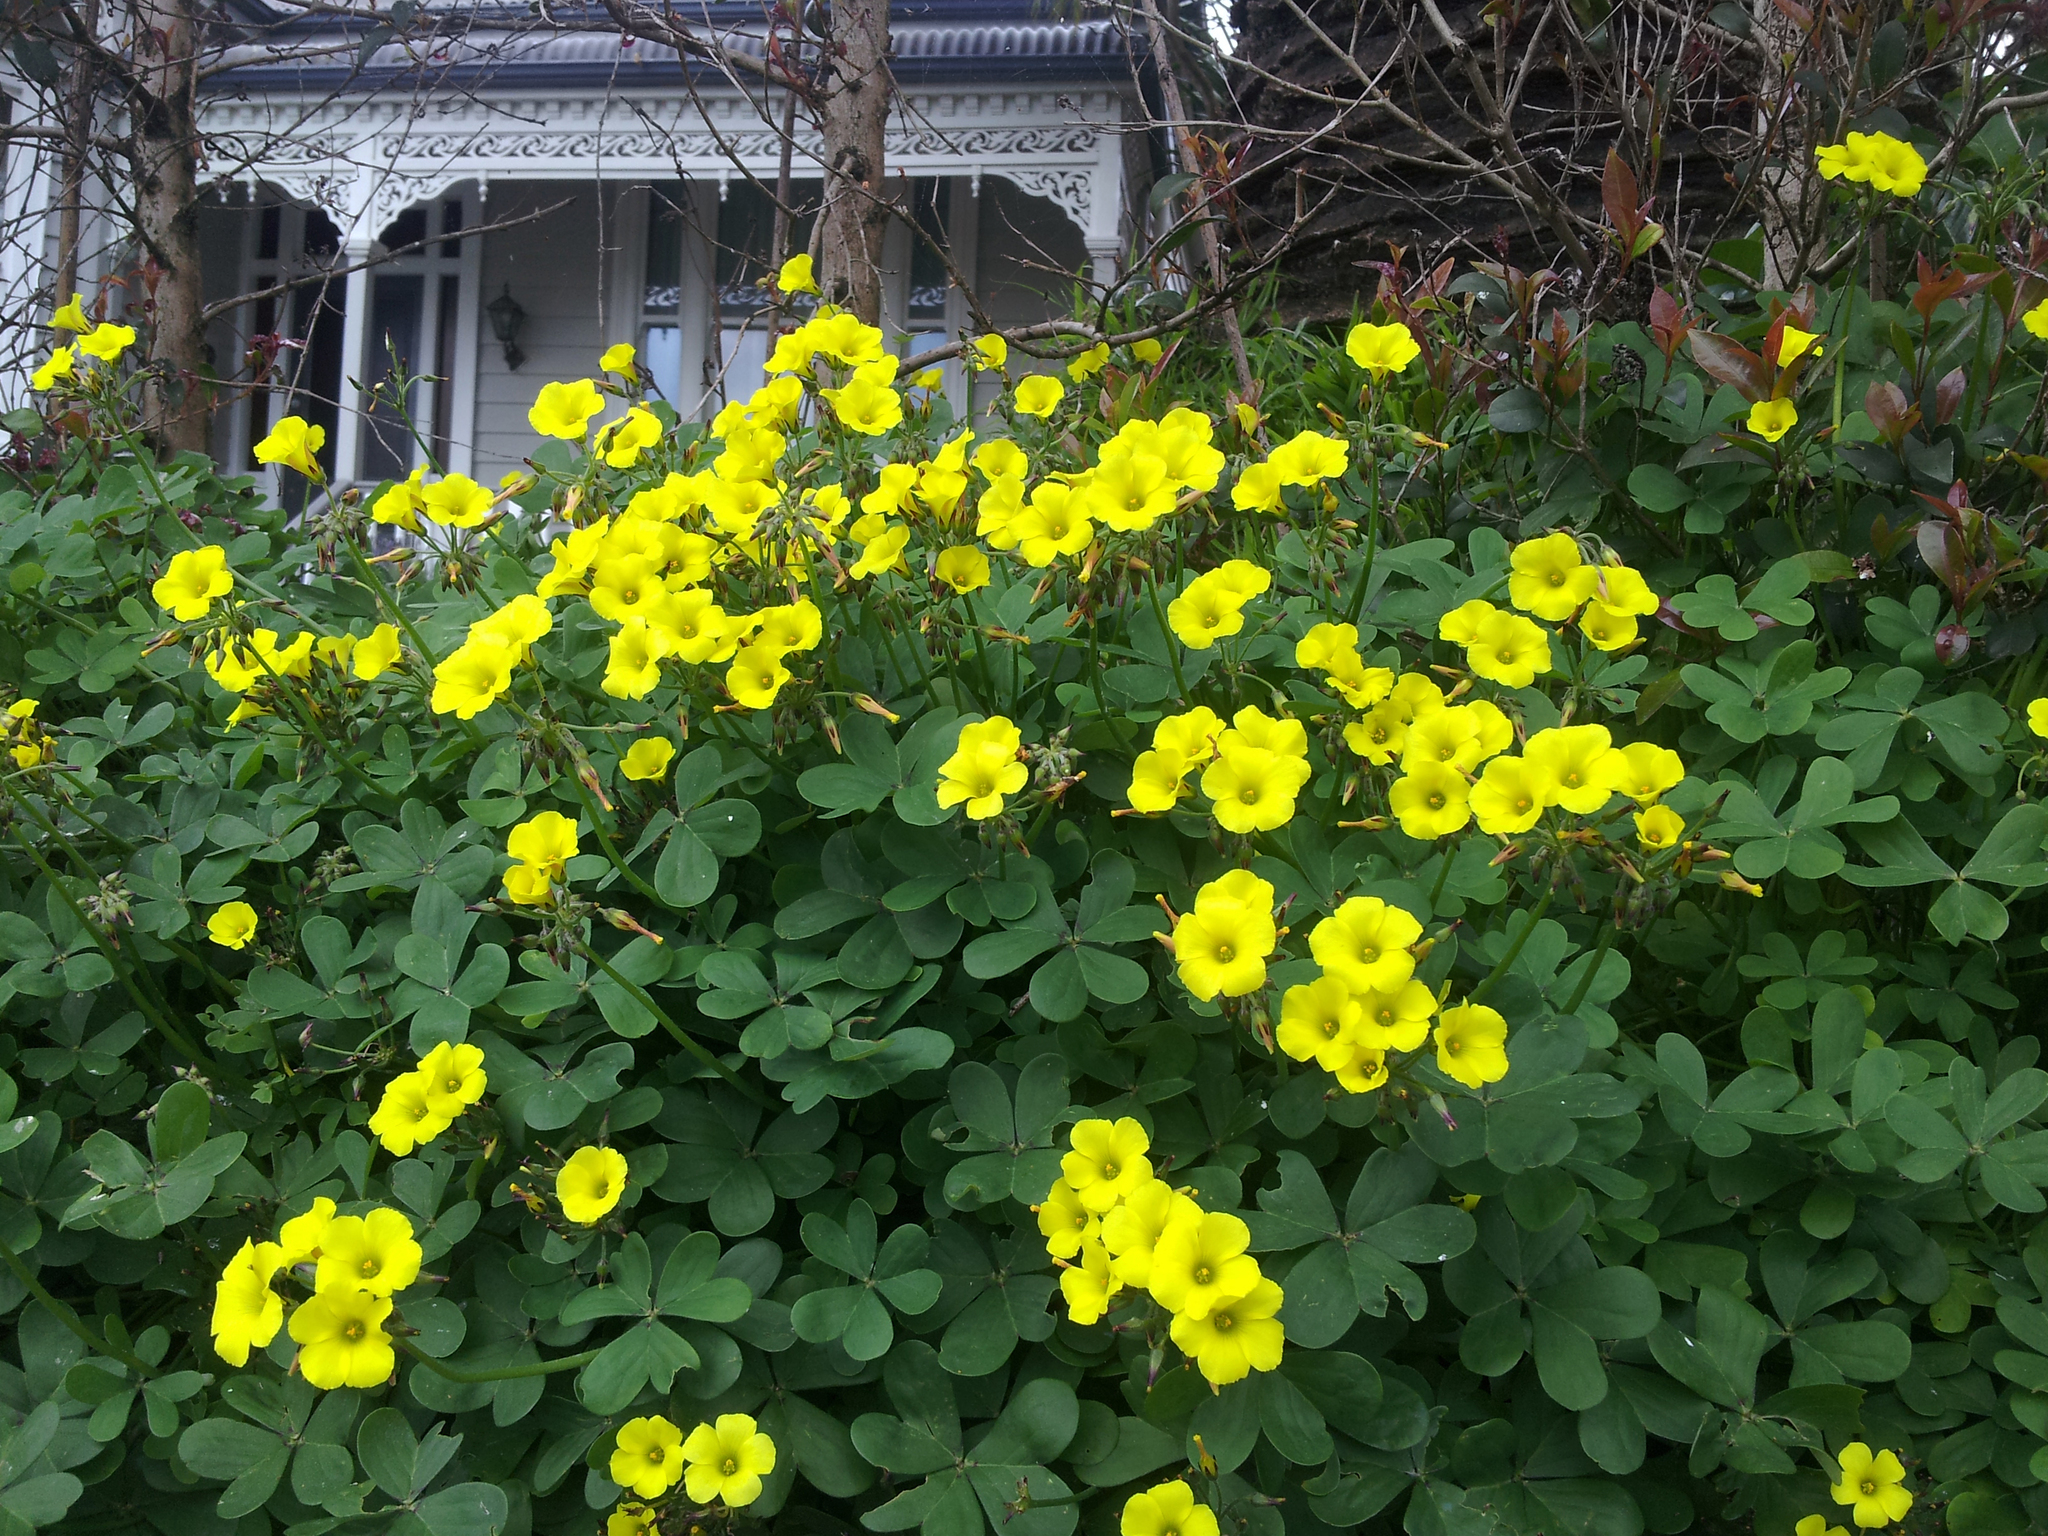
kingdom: Plantae
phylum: Tracheophyta
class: Magnoliopsida
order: Oxalidales
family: Oxalidaceae
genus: Oxalis
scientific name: Oxalis pes-caprae
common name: Bermuda-buttercup
